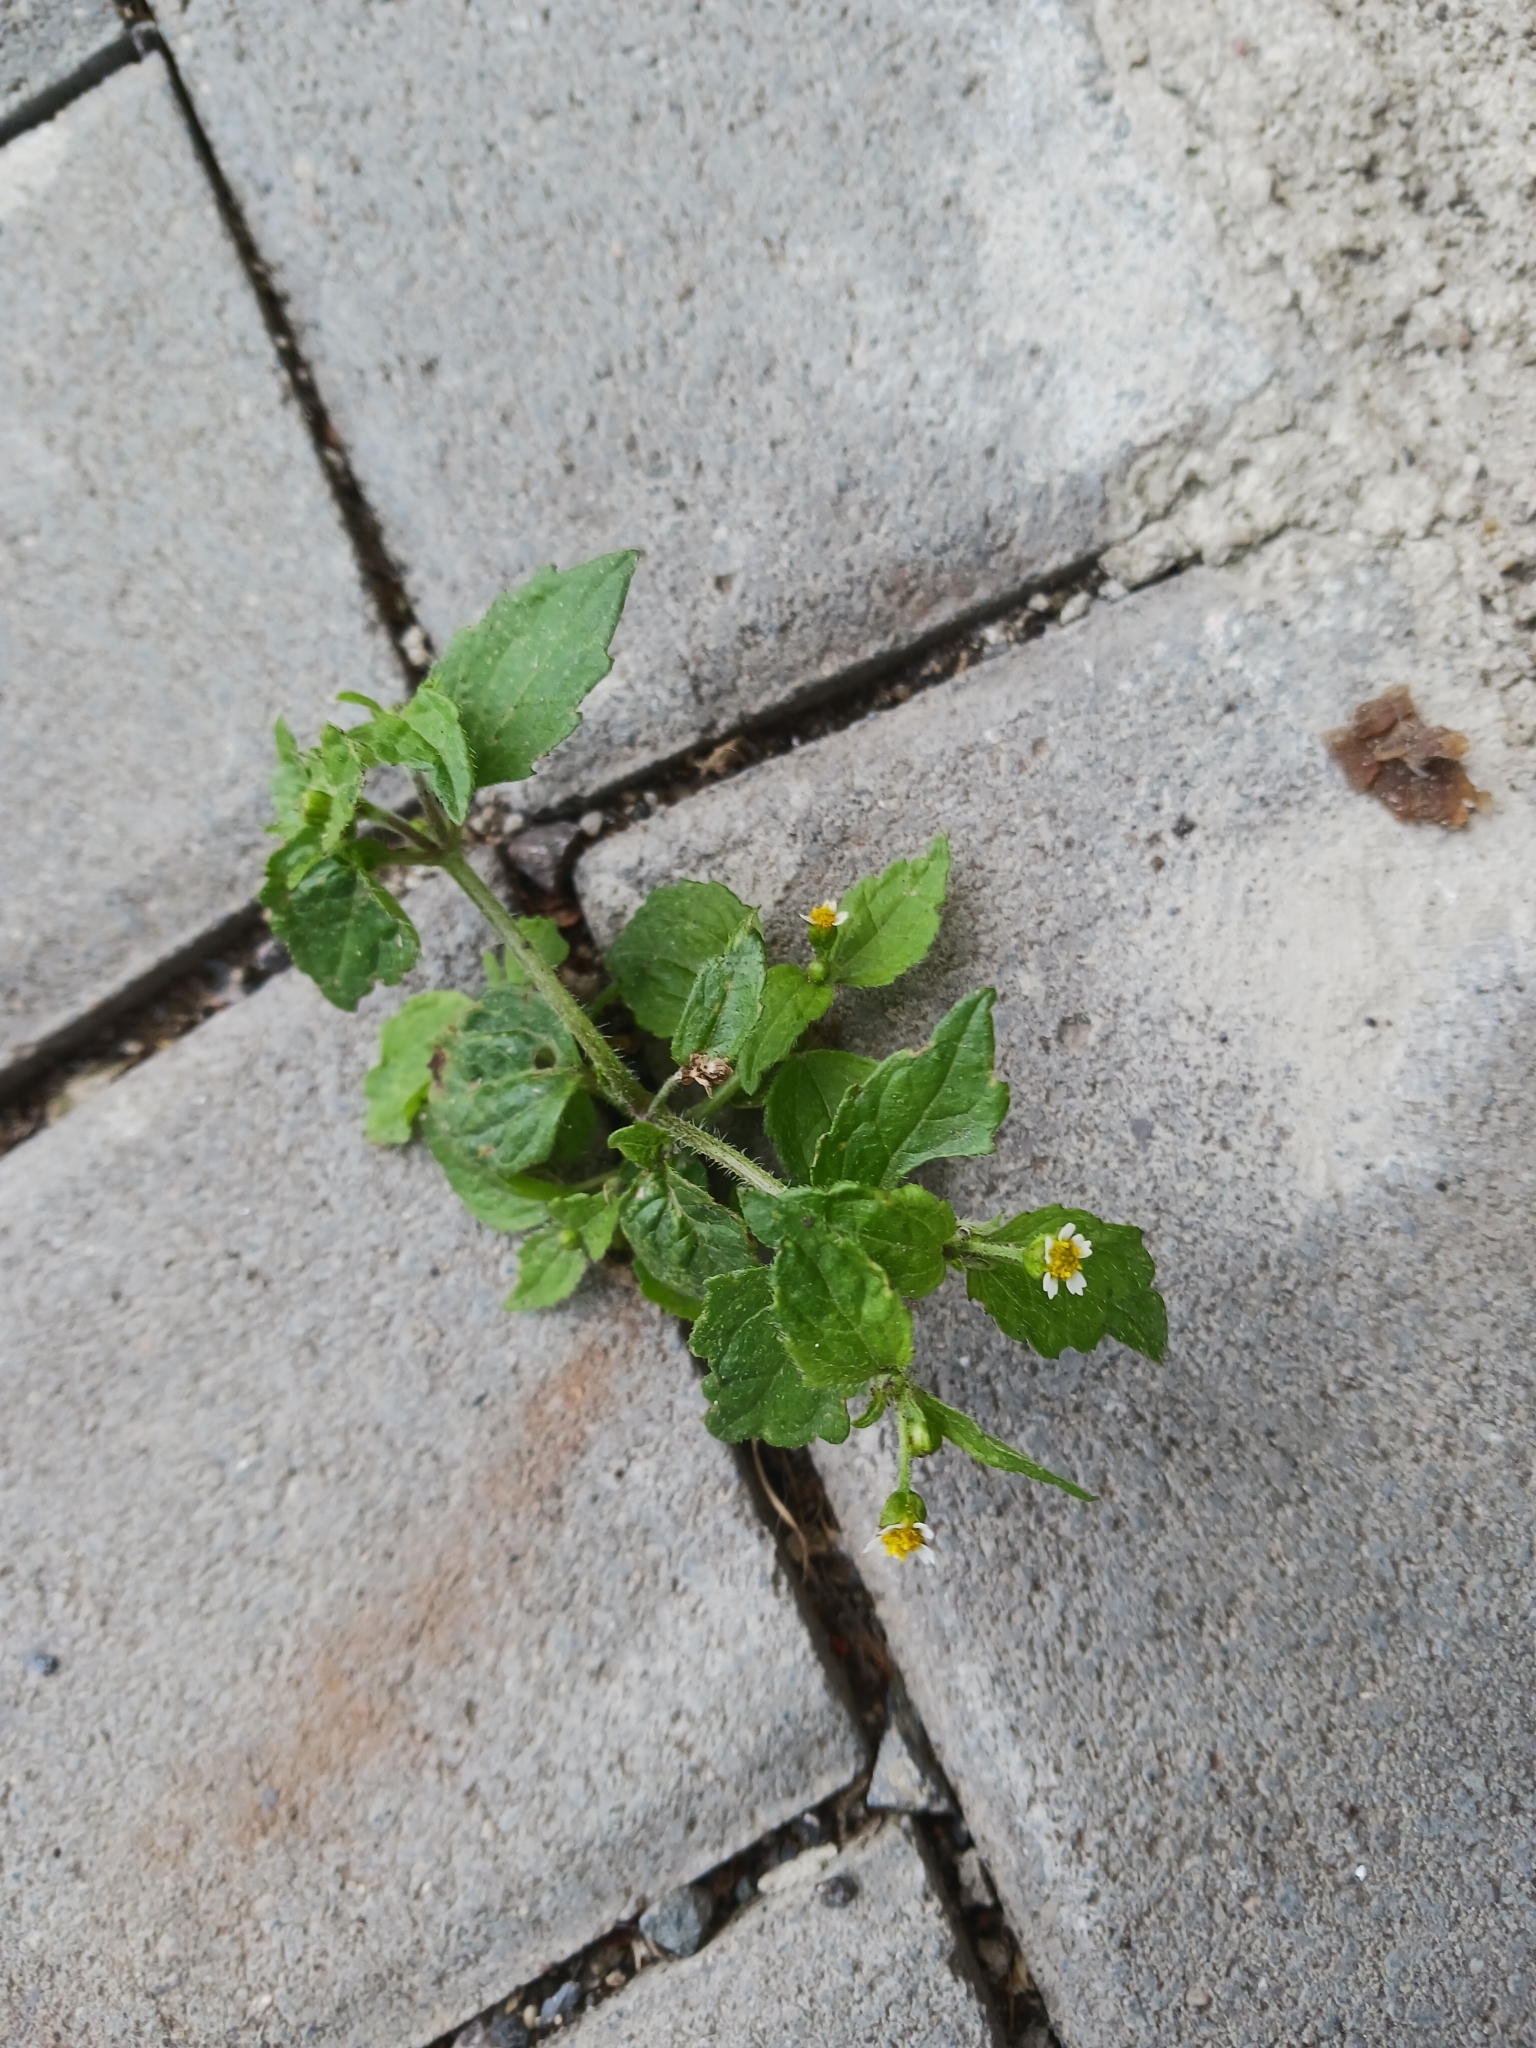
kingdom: Plantae
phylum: Tracheophyta
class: Magnoliopsida
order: Asterales
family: Asteraceae
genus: Galinsoga
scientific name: Galinsoga quadriradiata
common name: Shaggy soldier
